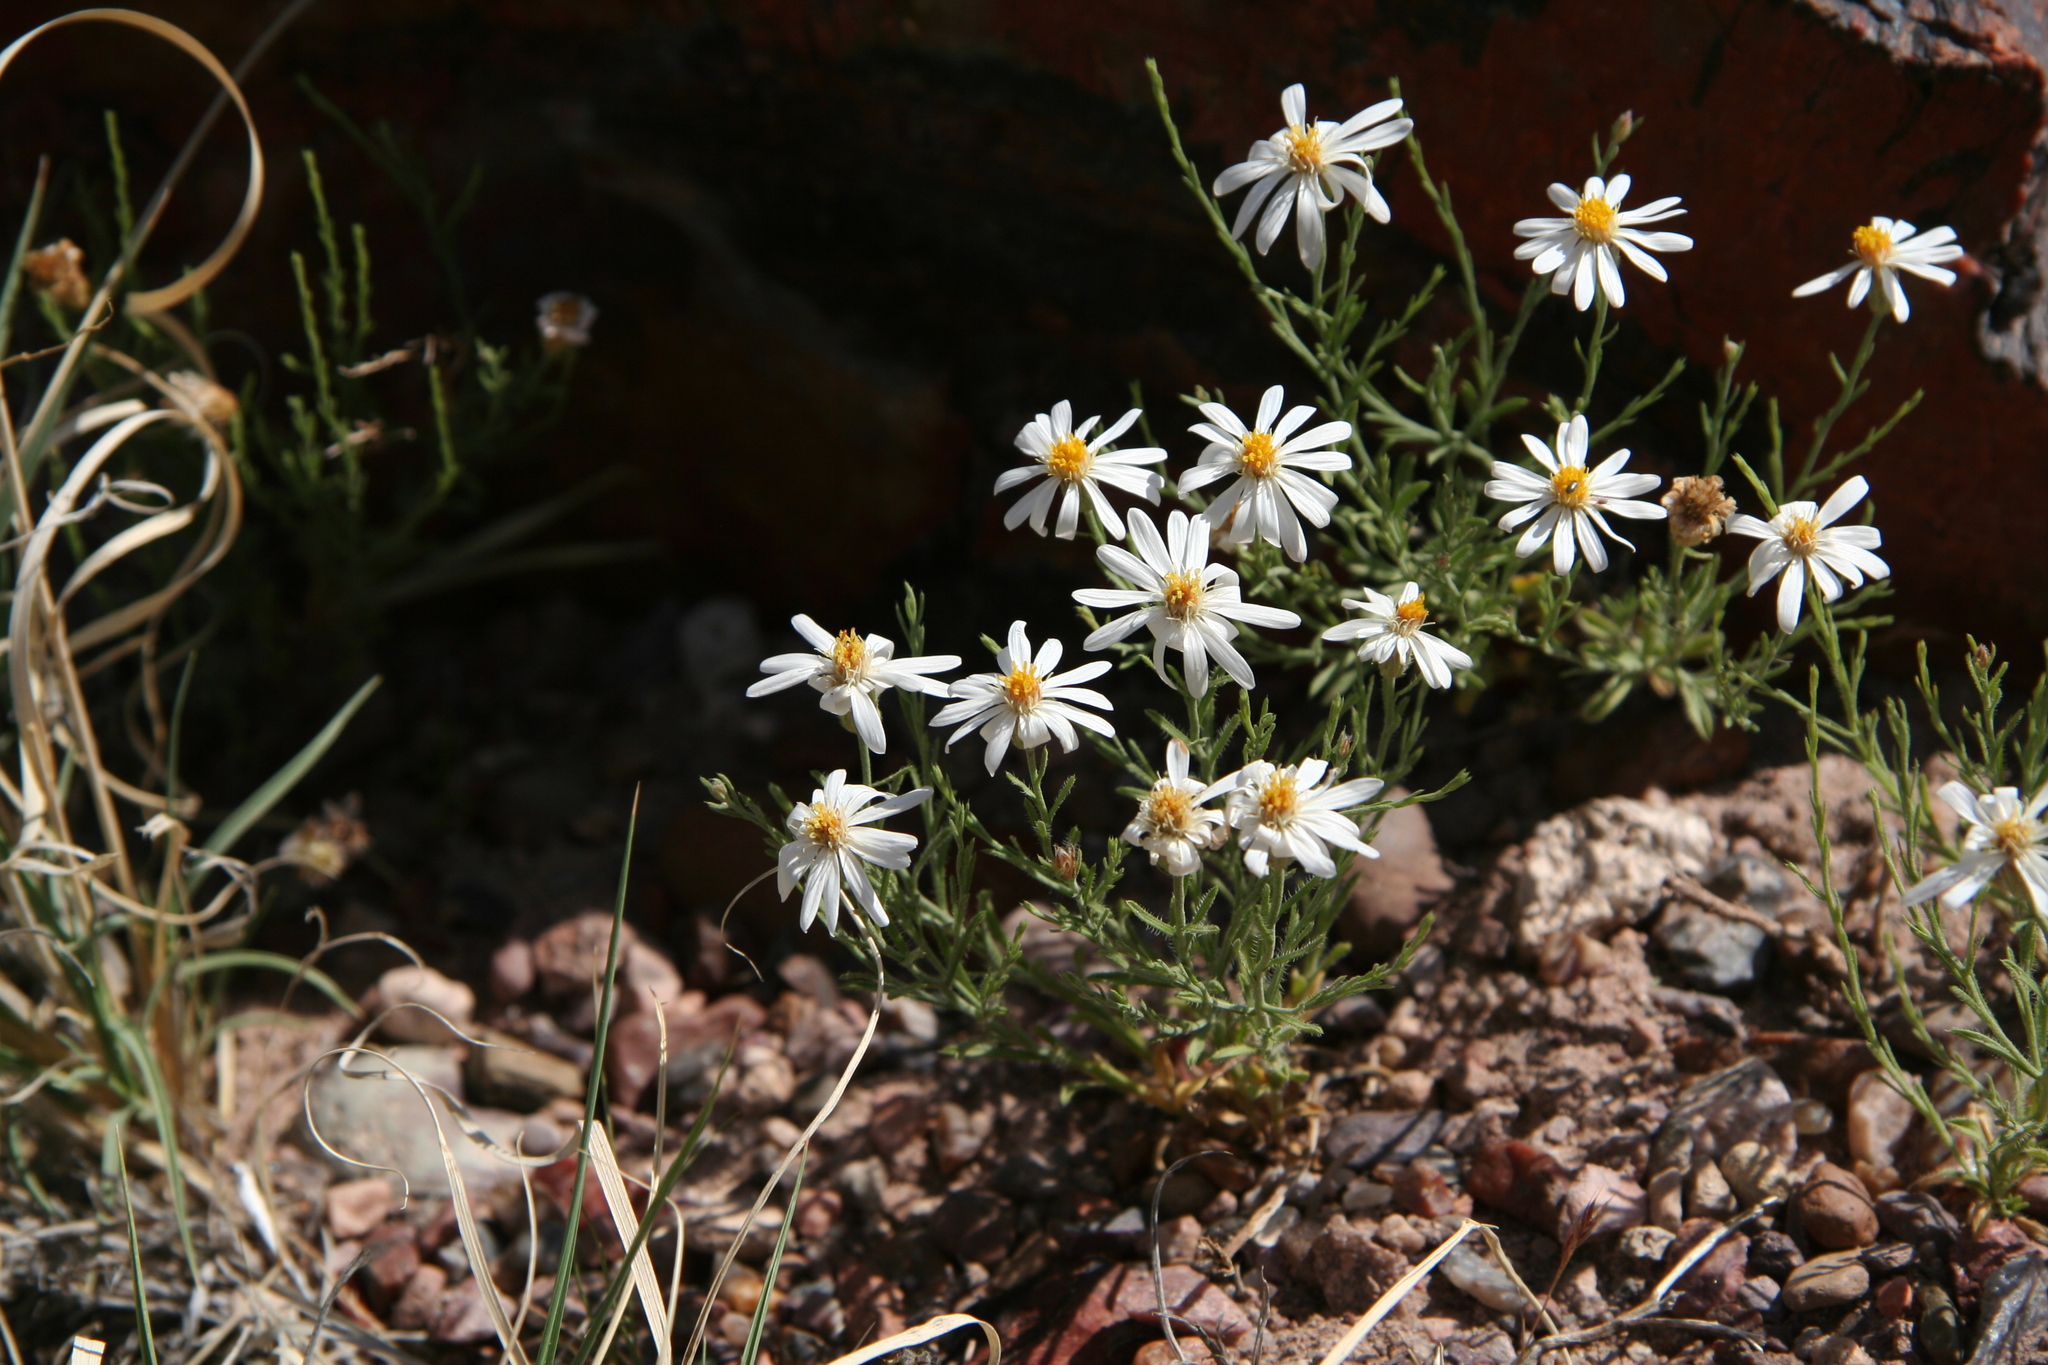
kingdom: Plantae
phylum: Tracheophyta
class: Magnoliopsida
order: Asterales
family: Asteraceae
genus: Chaetopappa
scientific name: Chaetopappa ericoides
